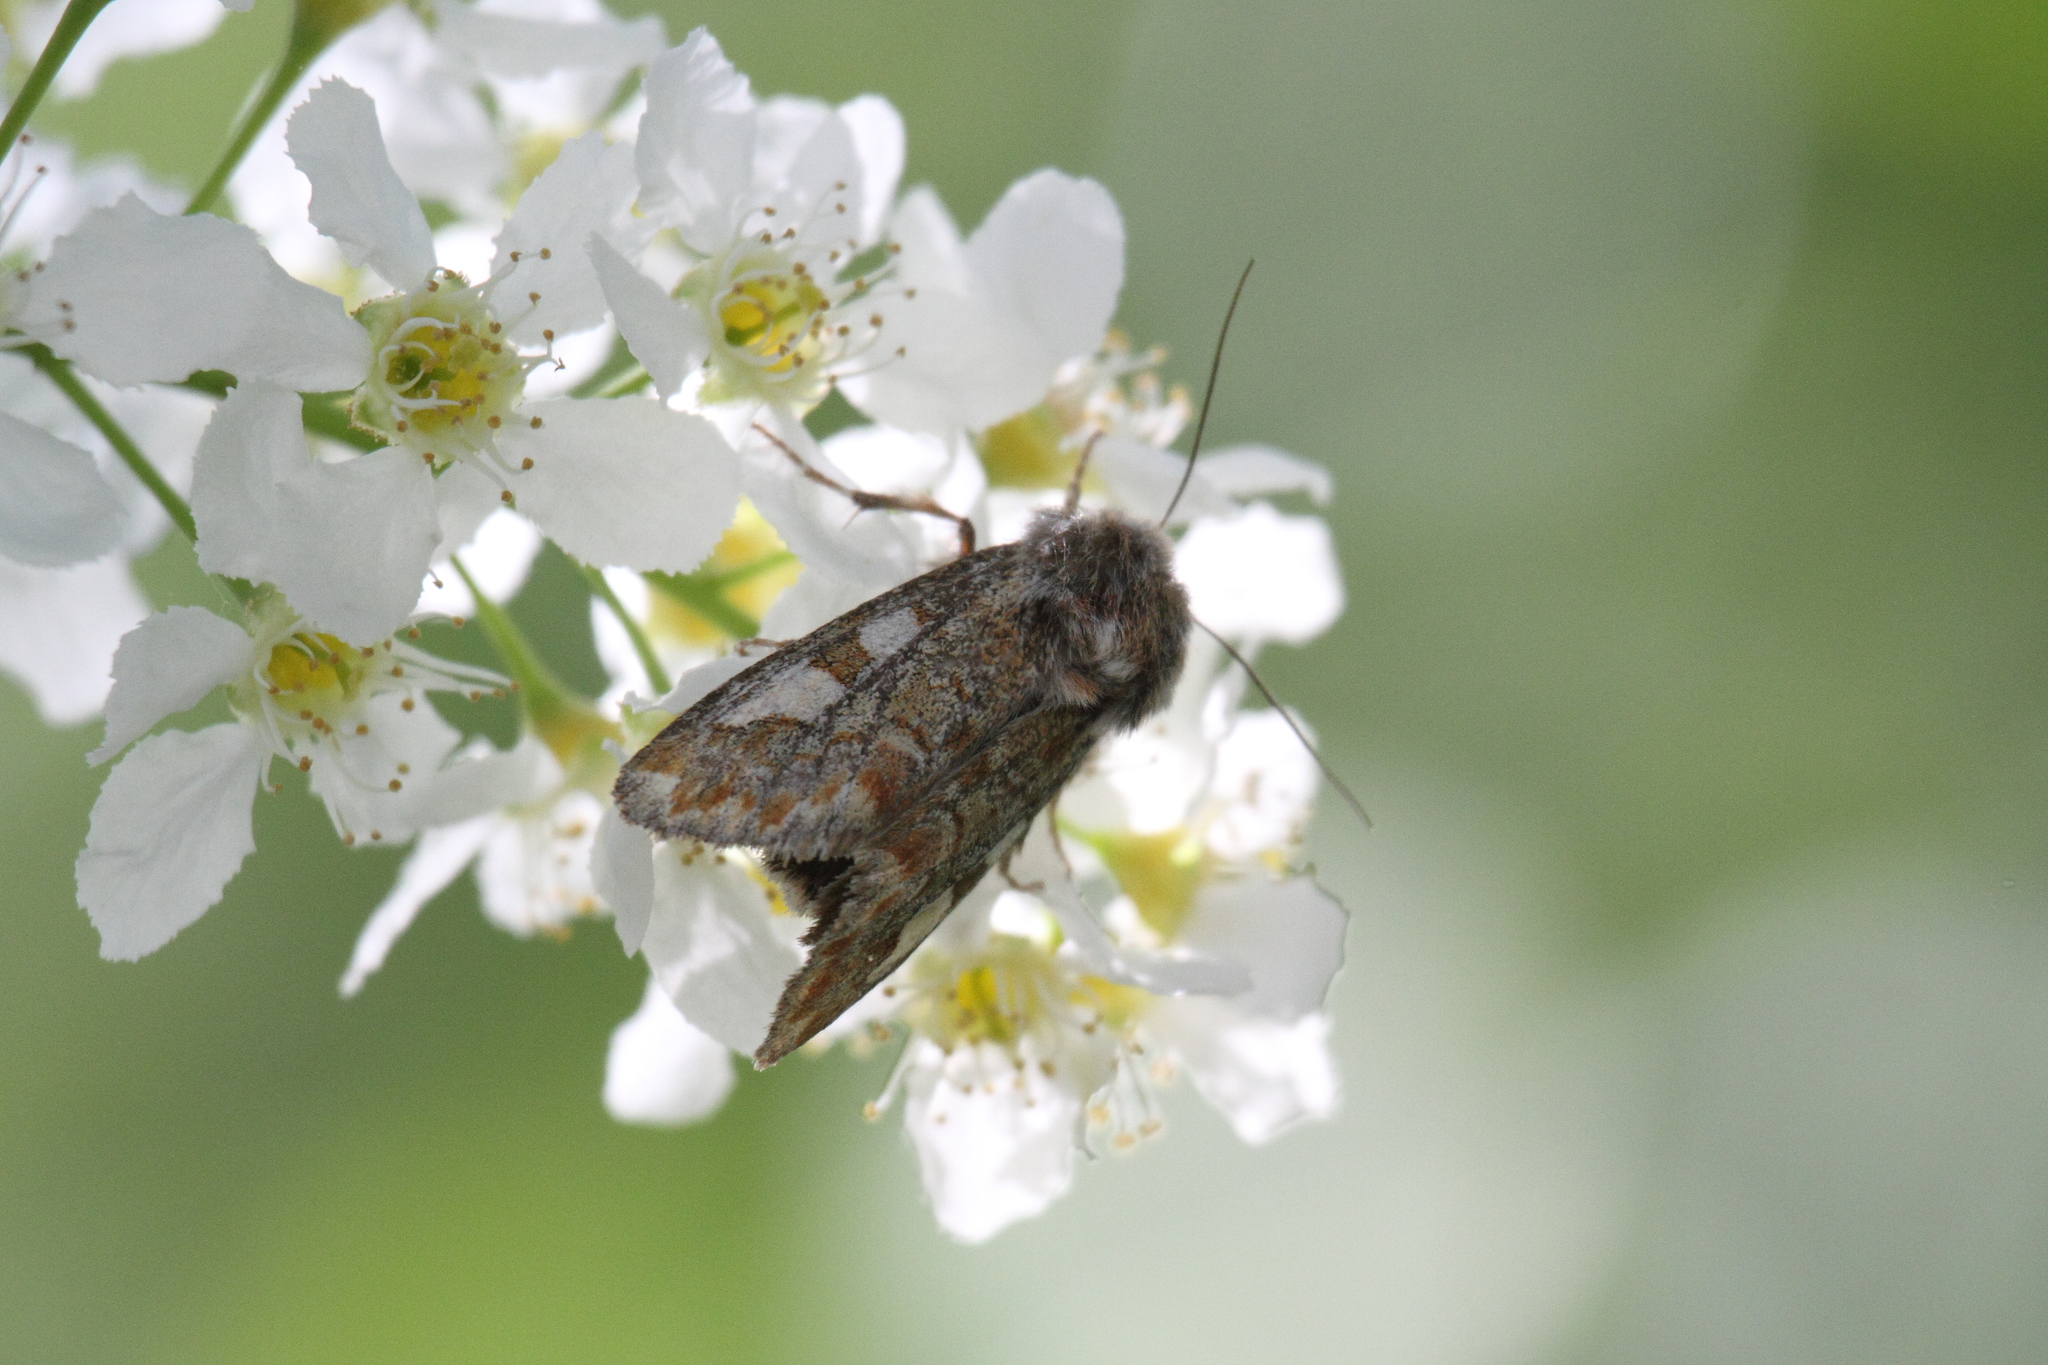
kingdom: Animalia
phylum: Arthropoda
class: Insecta
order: Lepidoptera
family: Noctuidae
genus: Panolis
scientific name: Panolis flammea
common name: Pine beauty
